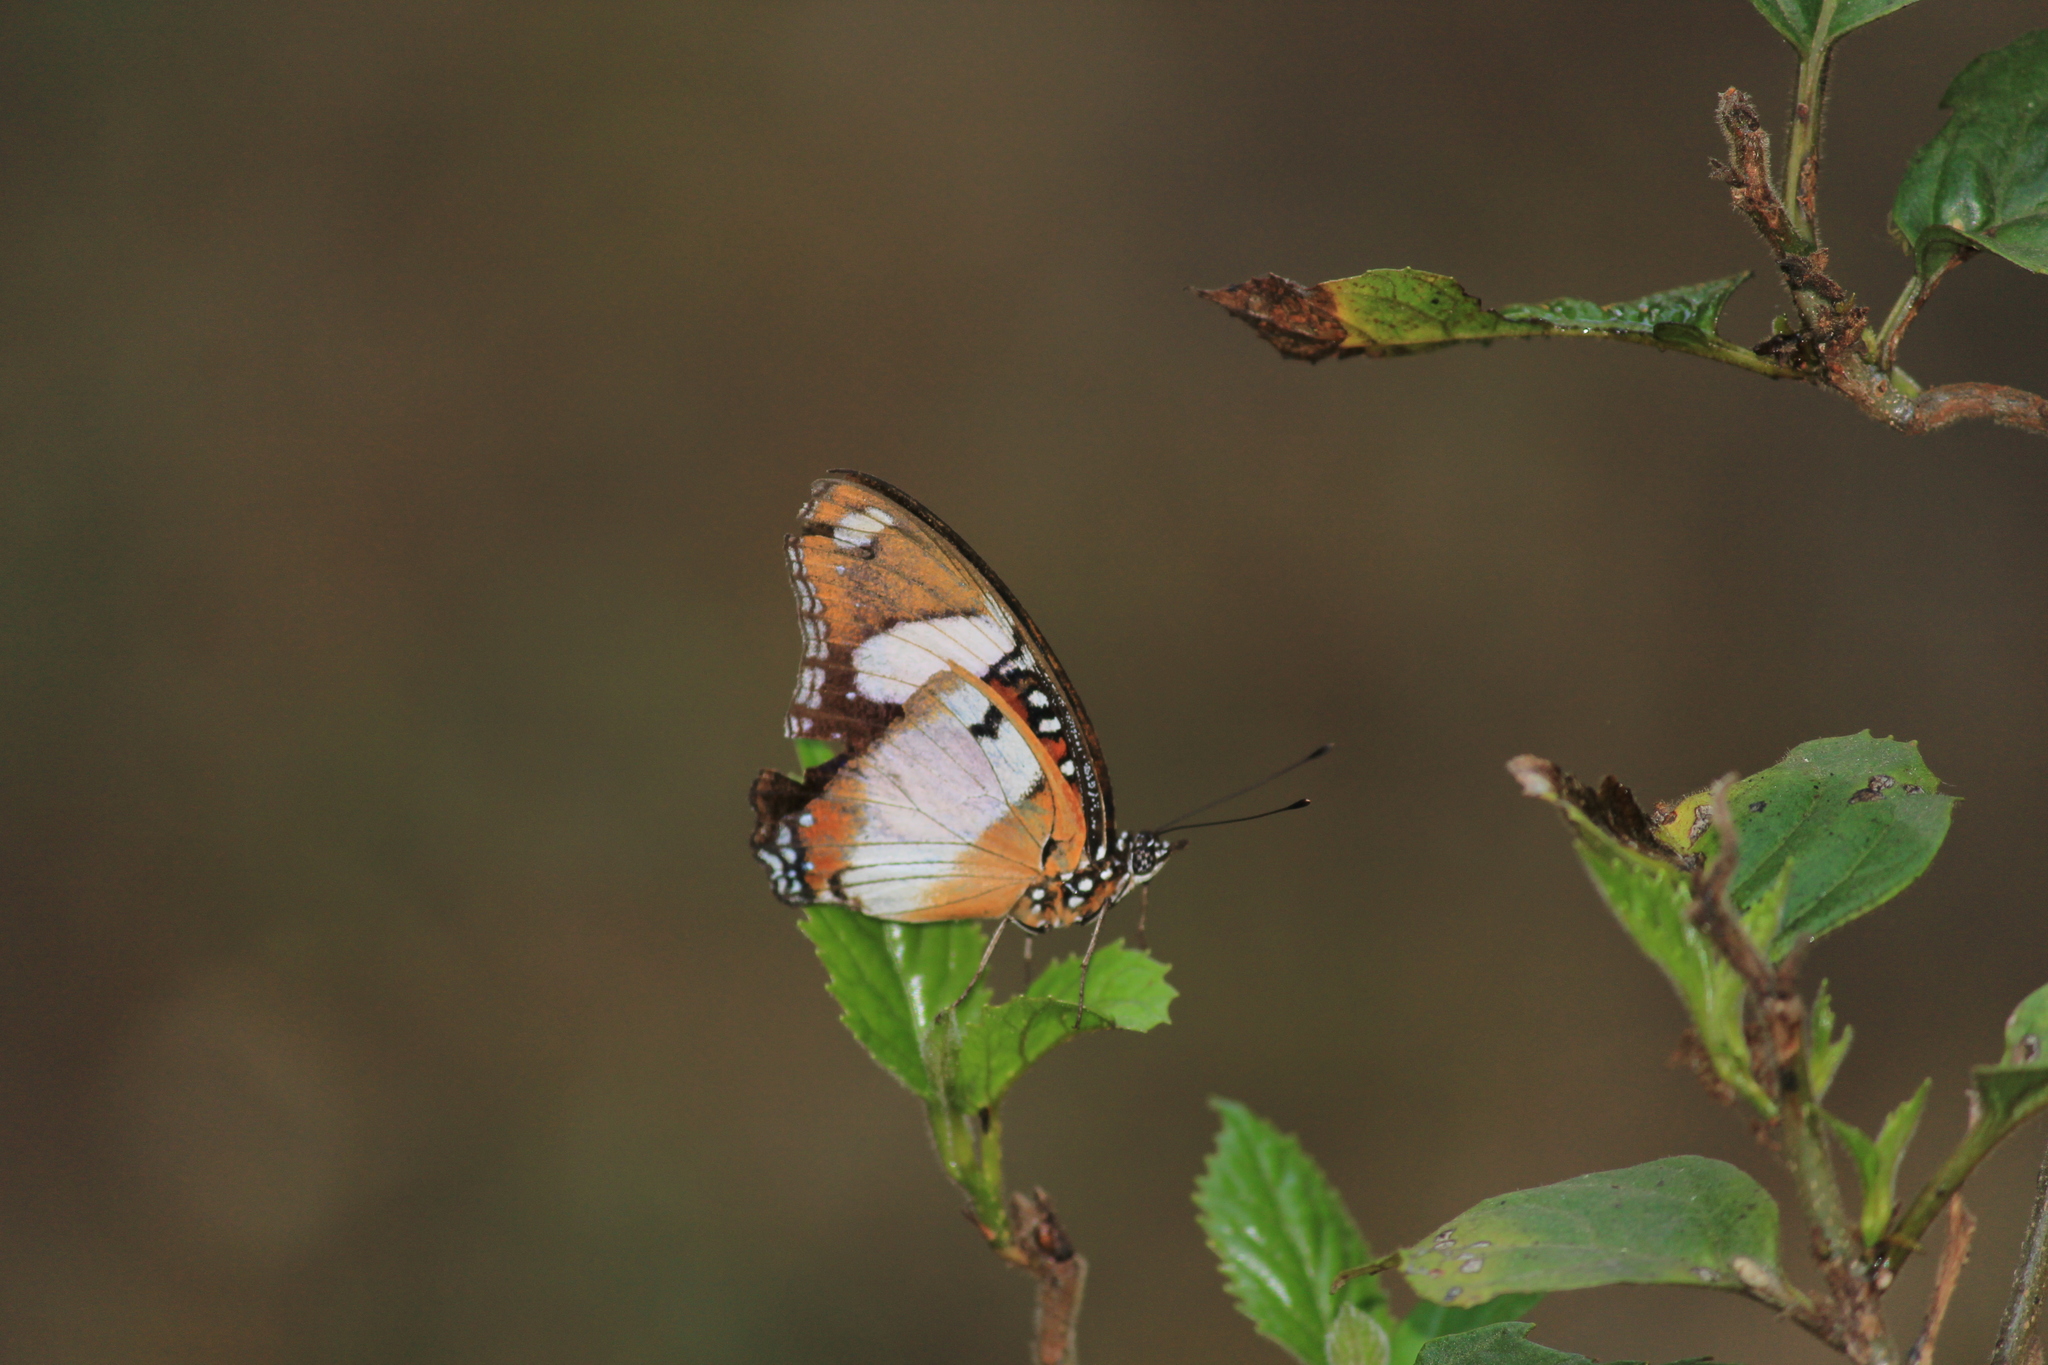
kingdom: Animalia
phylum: Arthropoda
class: Insecta
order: Lepidoptera
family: Nymphalidae
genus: Hypolimnas
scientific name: Hypolimnas misippus
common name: False plain tiger
